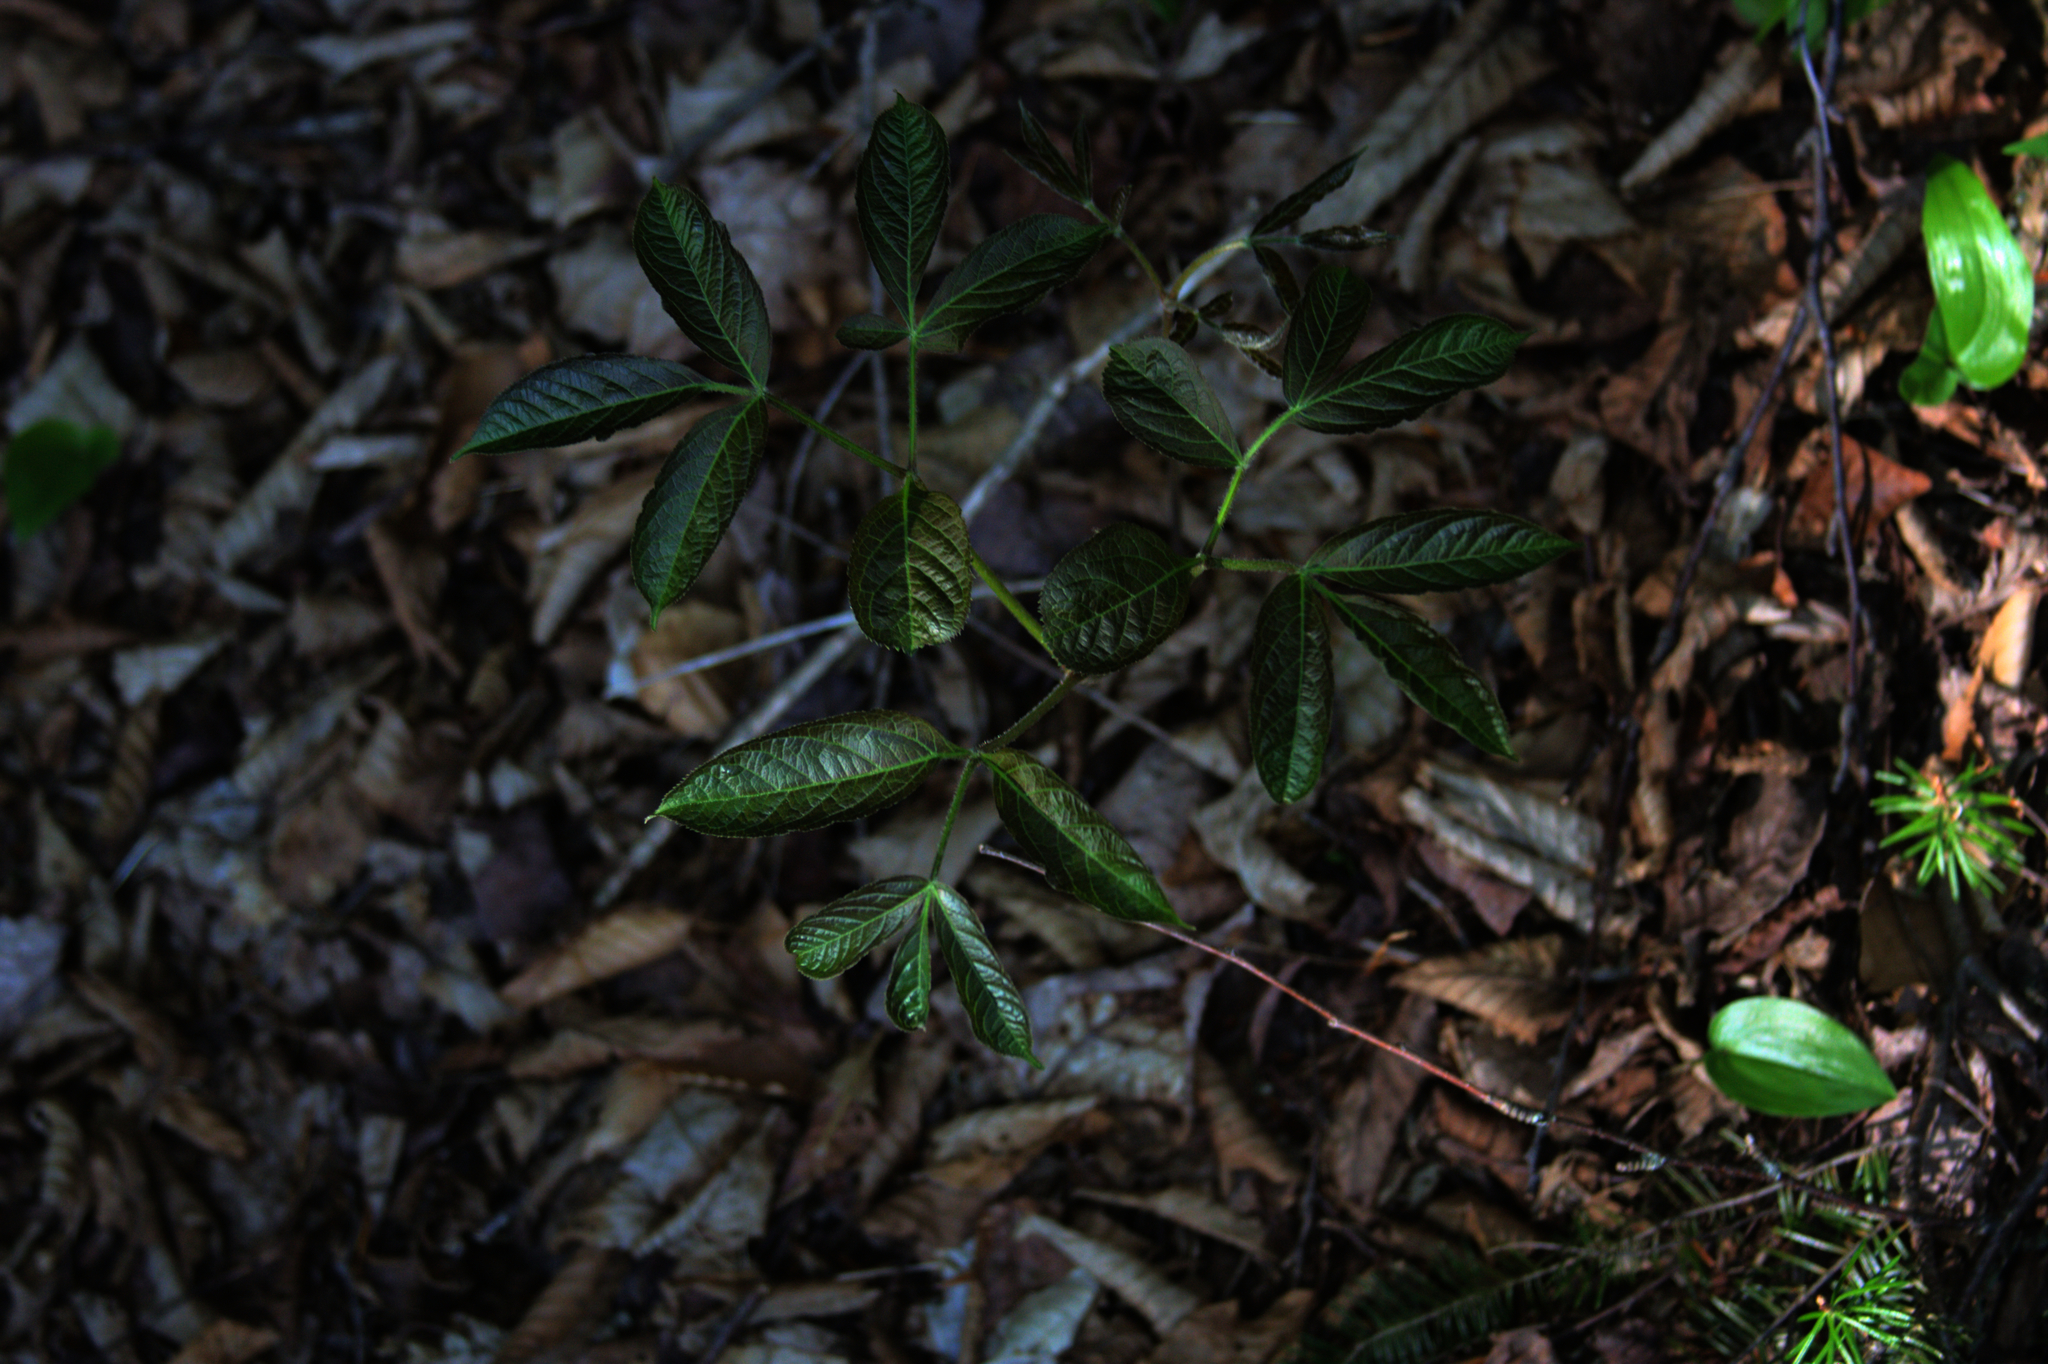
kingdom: Plantae
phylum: Tracheophyta
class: Magnoliopsida
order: Apiales
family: Araliaceae
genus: Aralia
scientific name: Aralia nudicaulis
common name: Wild sarsaparilla
